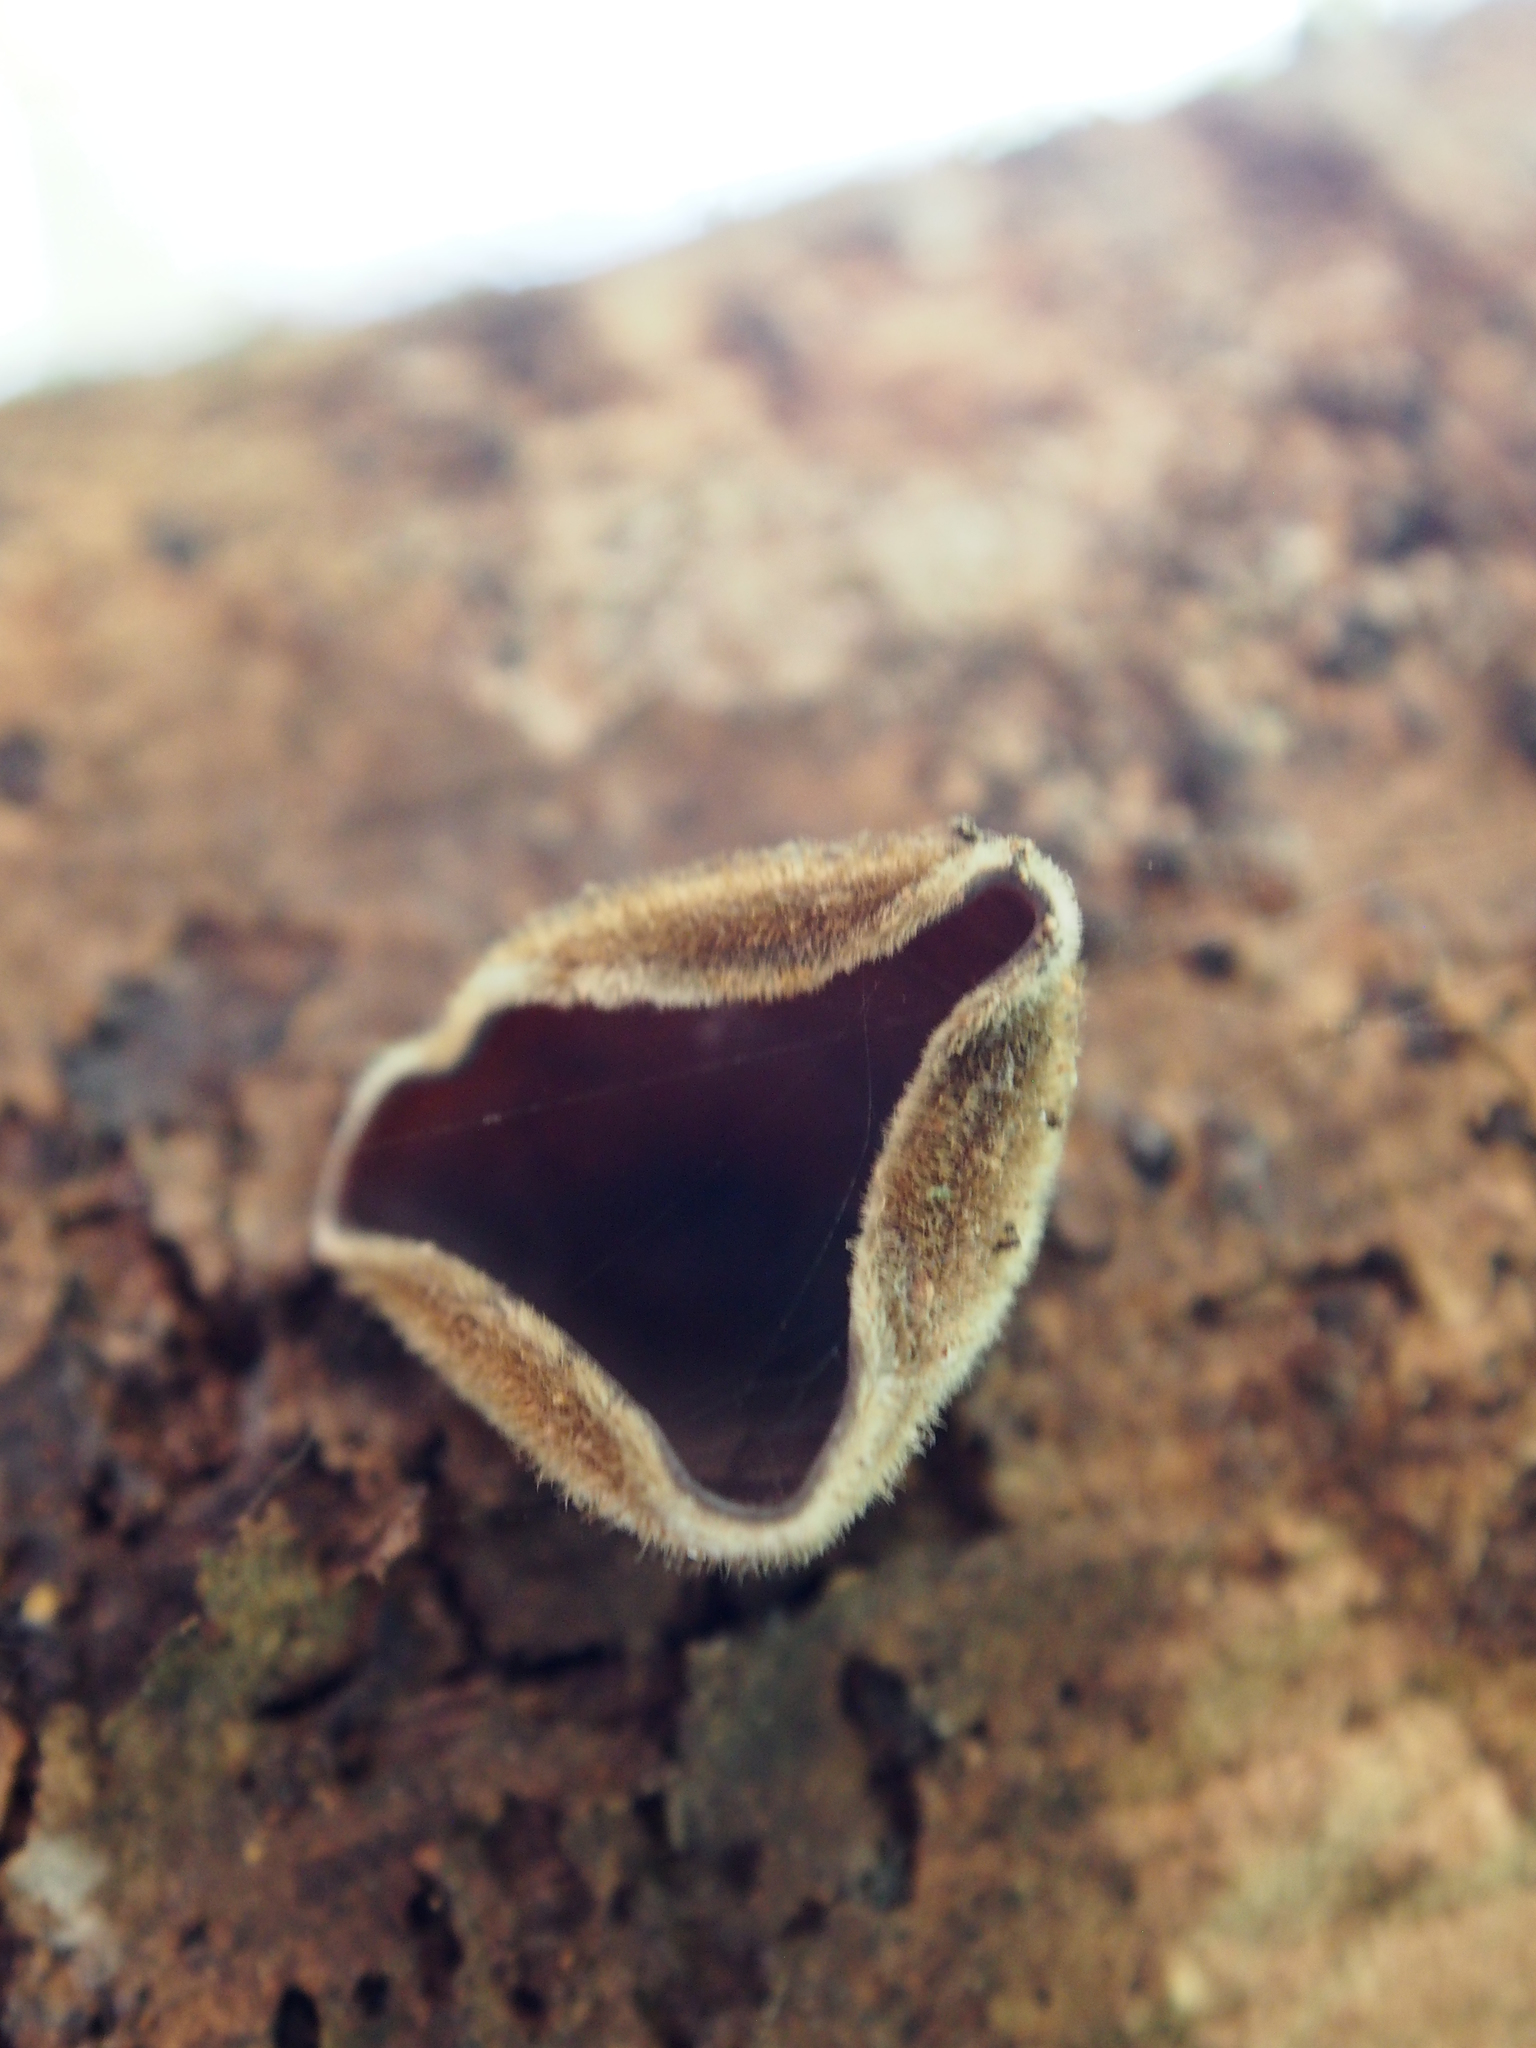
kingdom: Fungi
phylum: Basidiomycota
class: Agaricomycetes
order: Auriculariales
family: Auriculariaceae
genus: Auricularia
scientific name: Auricularia nigricans
